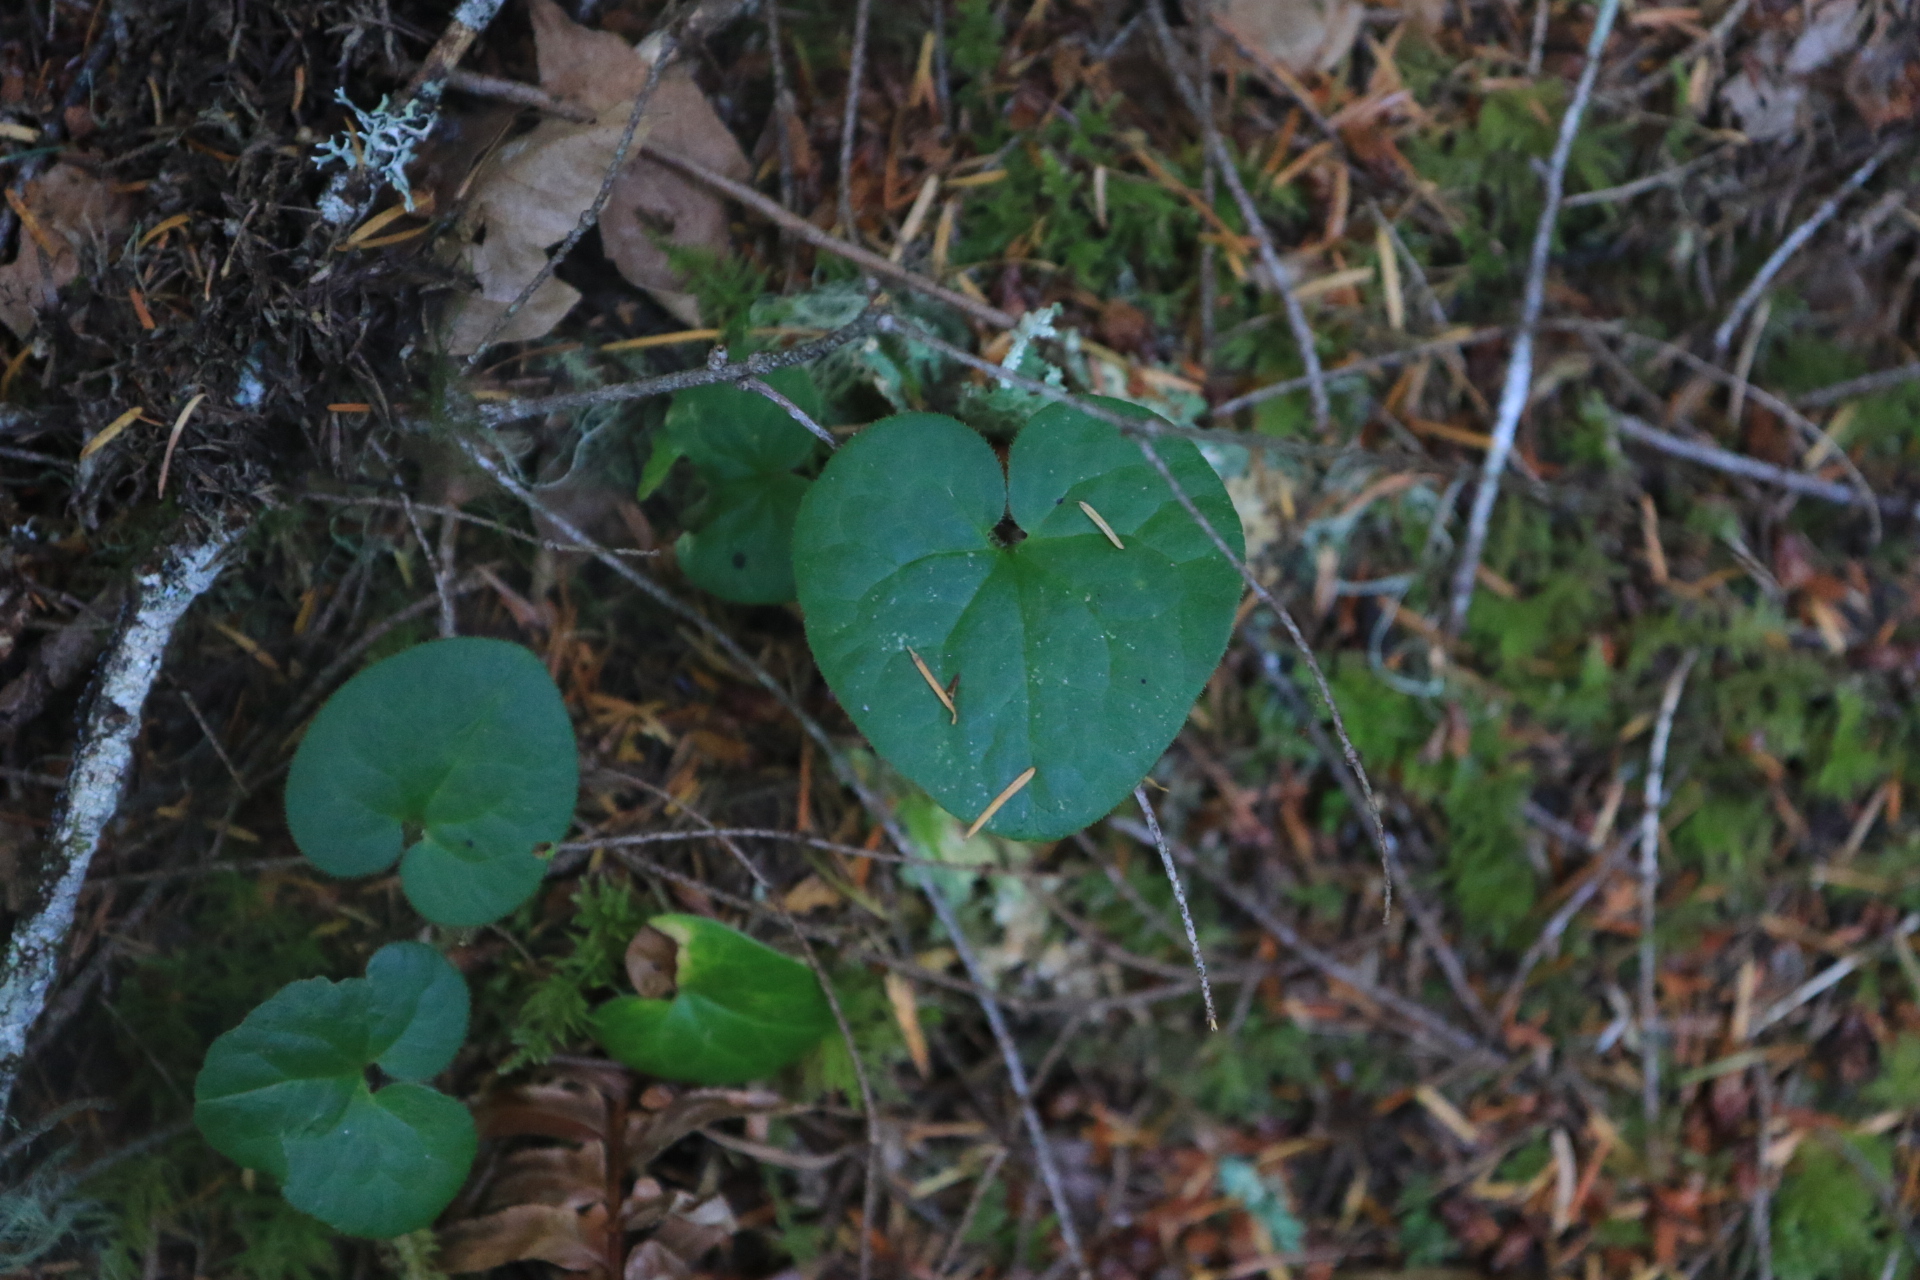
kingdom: Plantae
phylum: Tracheophyta
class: Magnoliopsida
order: Piperales
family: Aristolochiaceae
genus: Asarum
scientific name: Asarum caudatum
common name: Wild ginger
